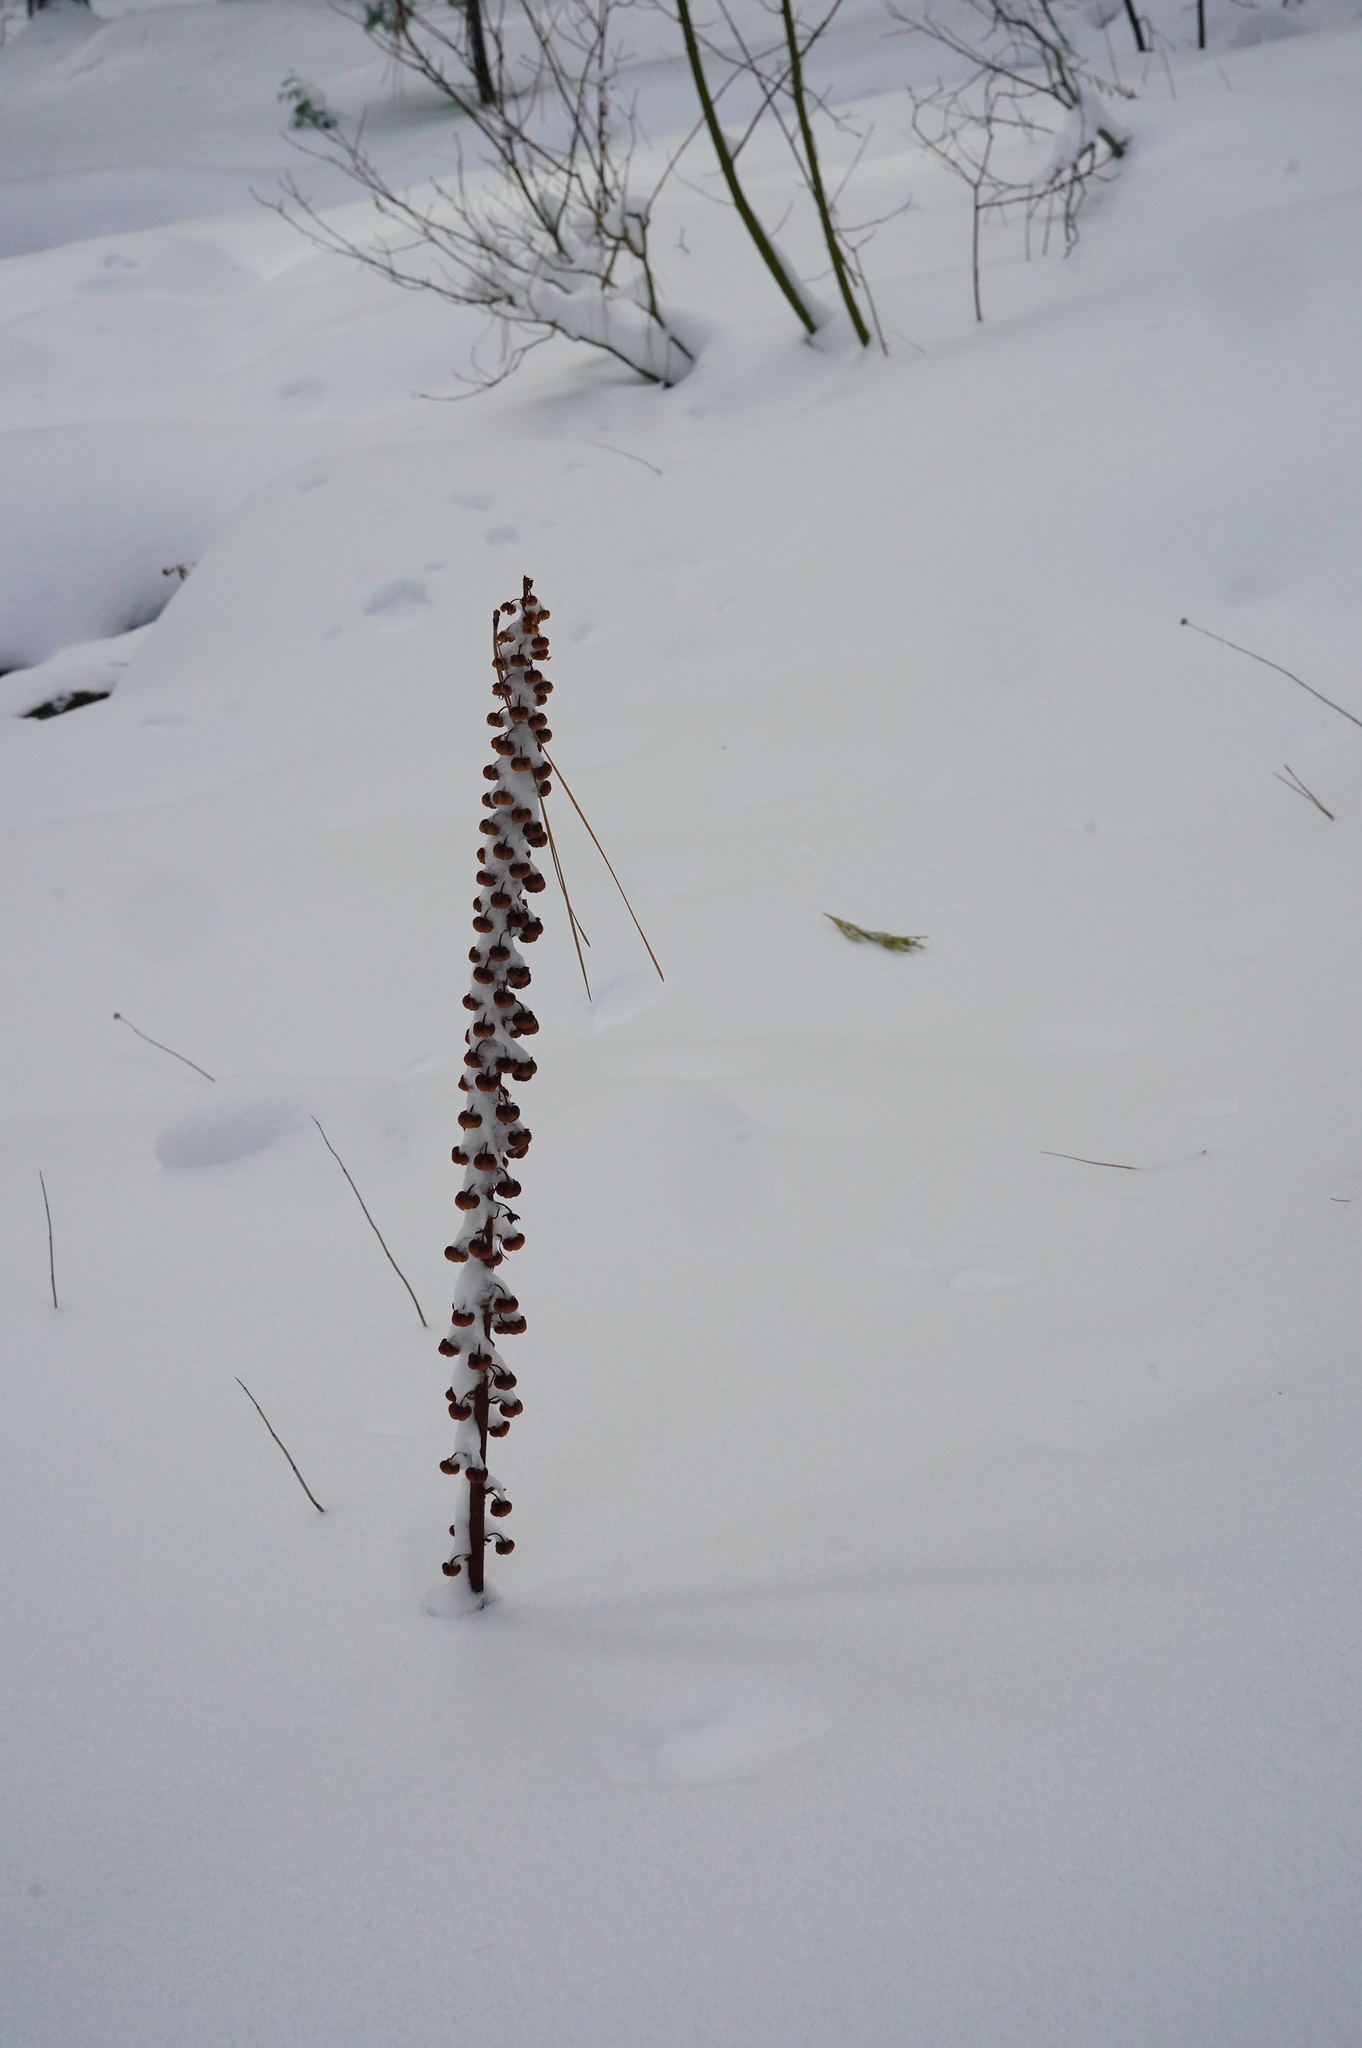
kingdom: Plantae
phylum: Tracheophyta
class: Magnoliopsida
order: Ericales
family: Ericaceae
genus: Pterospora
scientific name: Pterospora andromedea
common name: Giant bird's-nest
